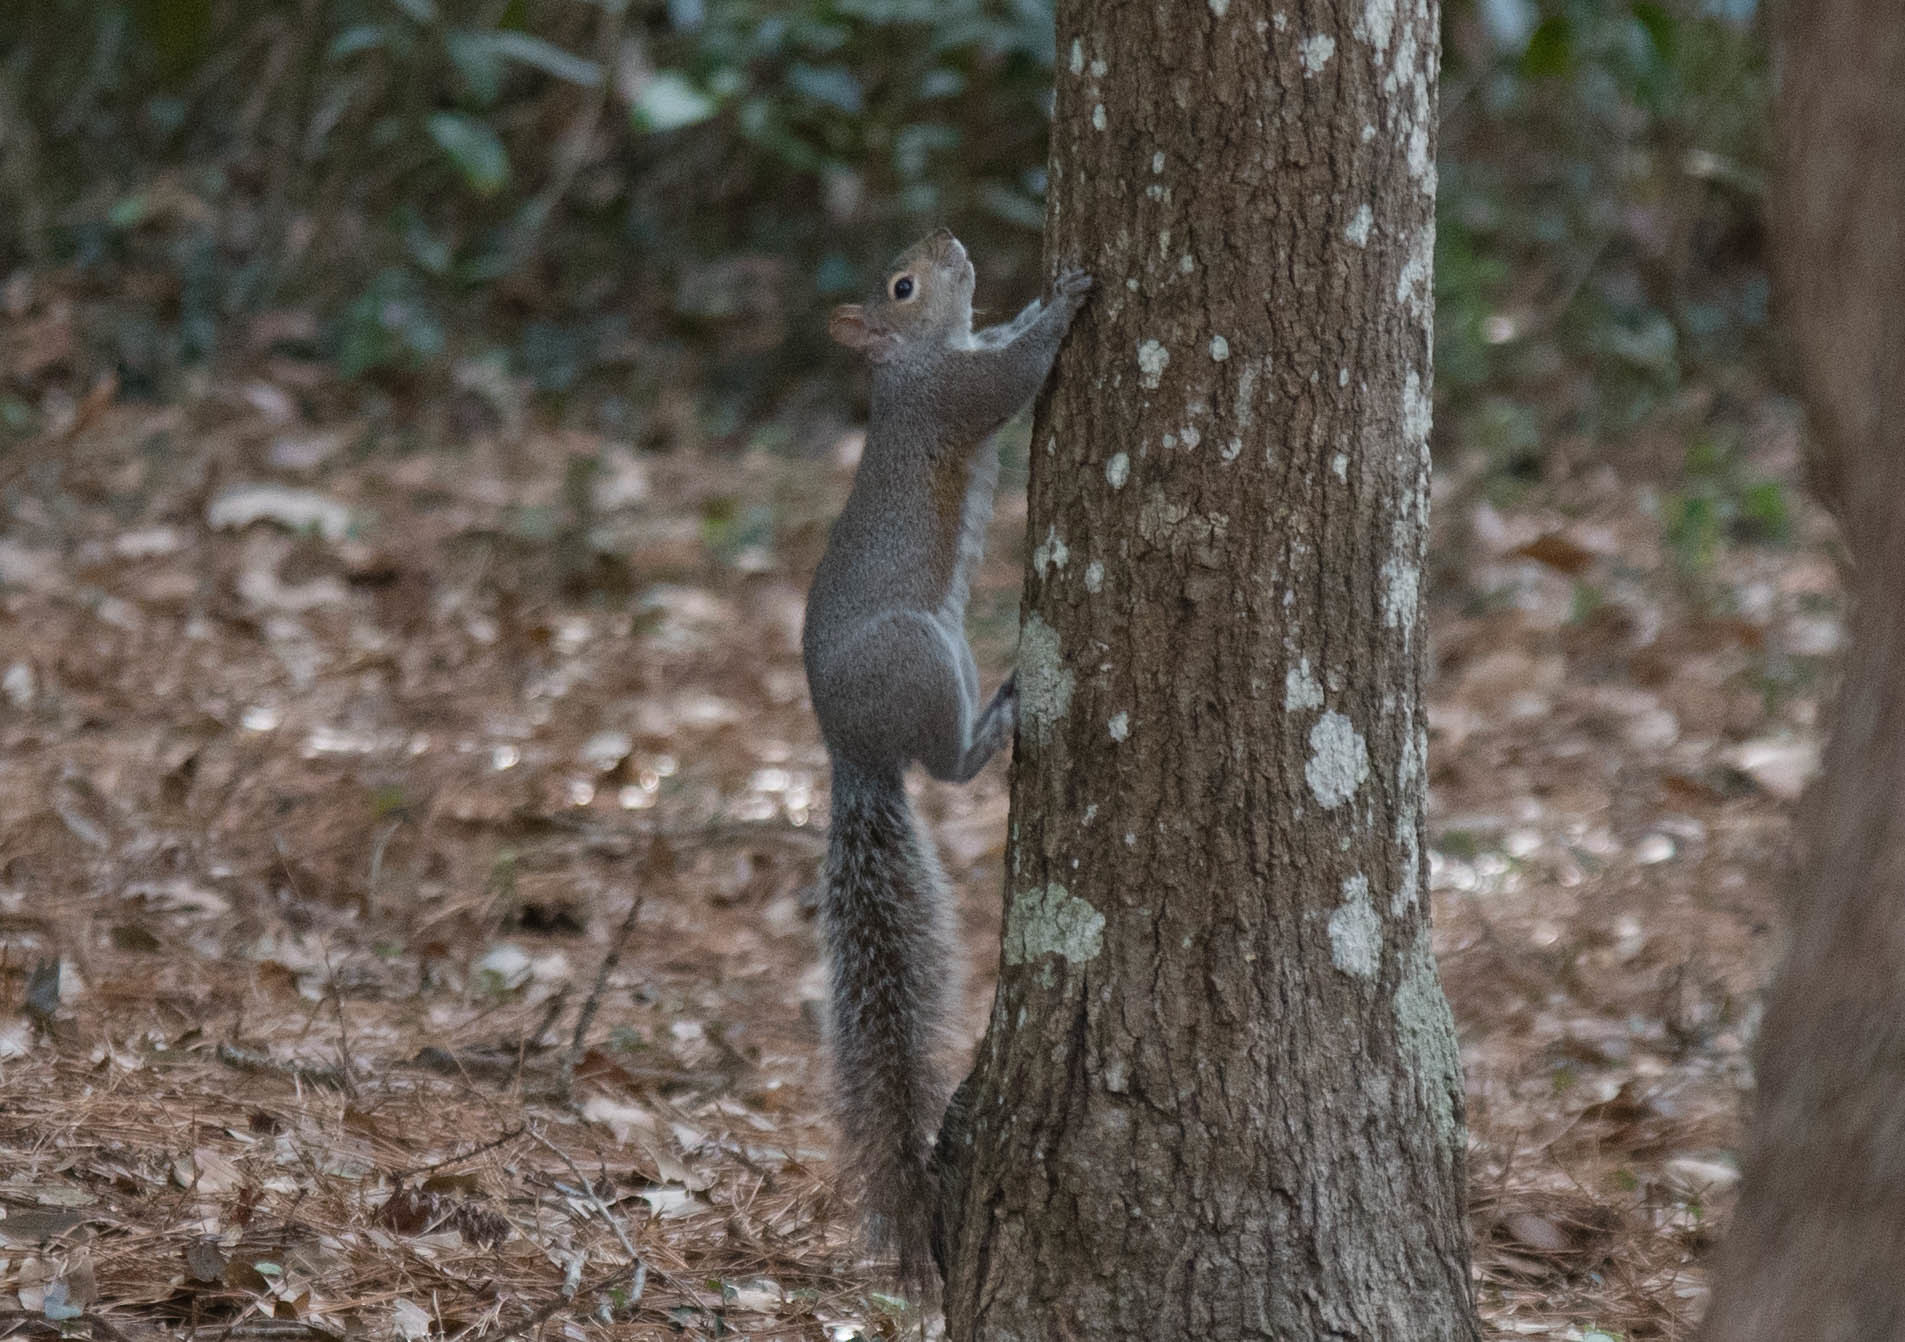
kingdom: Animalia
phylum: Chordata
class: Mammalia
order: Rodentia
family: Sciuridae
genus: Sciurus
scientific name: Sciurus carolinensis
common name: Eastern gray squirrel
